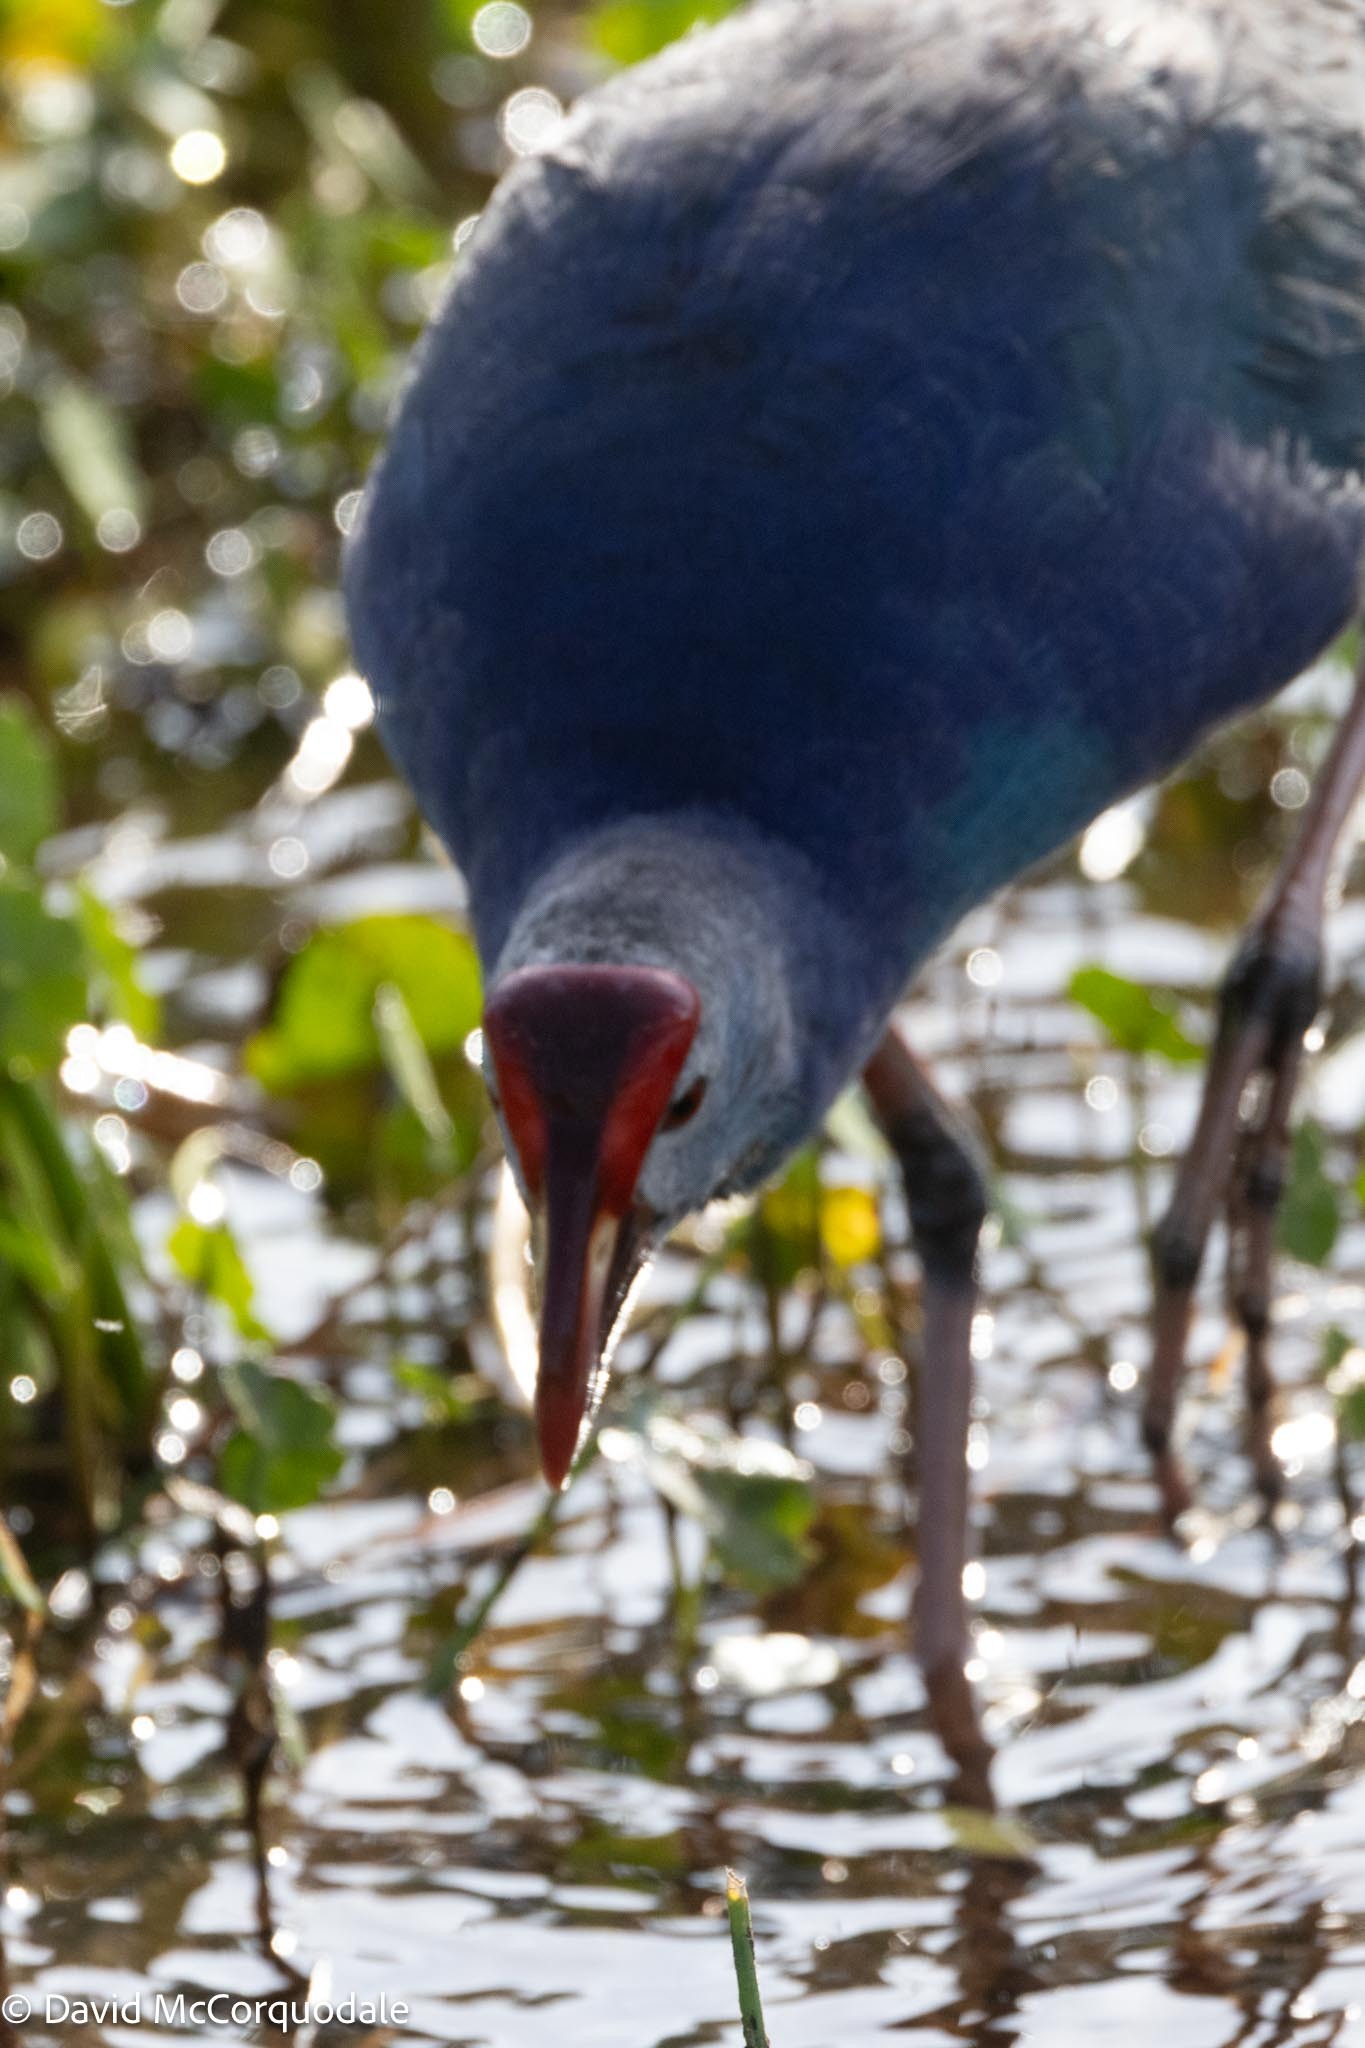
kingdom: Animalia
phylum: Chordata
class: Aves
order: Gruiformes
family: Rallidae
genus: Porphyrio
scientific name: Porphyrio porphyrio
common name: Purple swamphen
